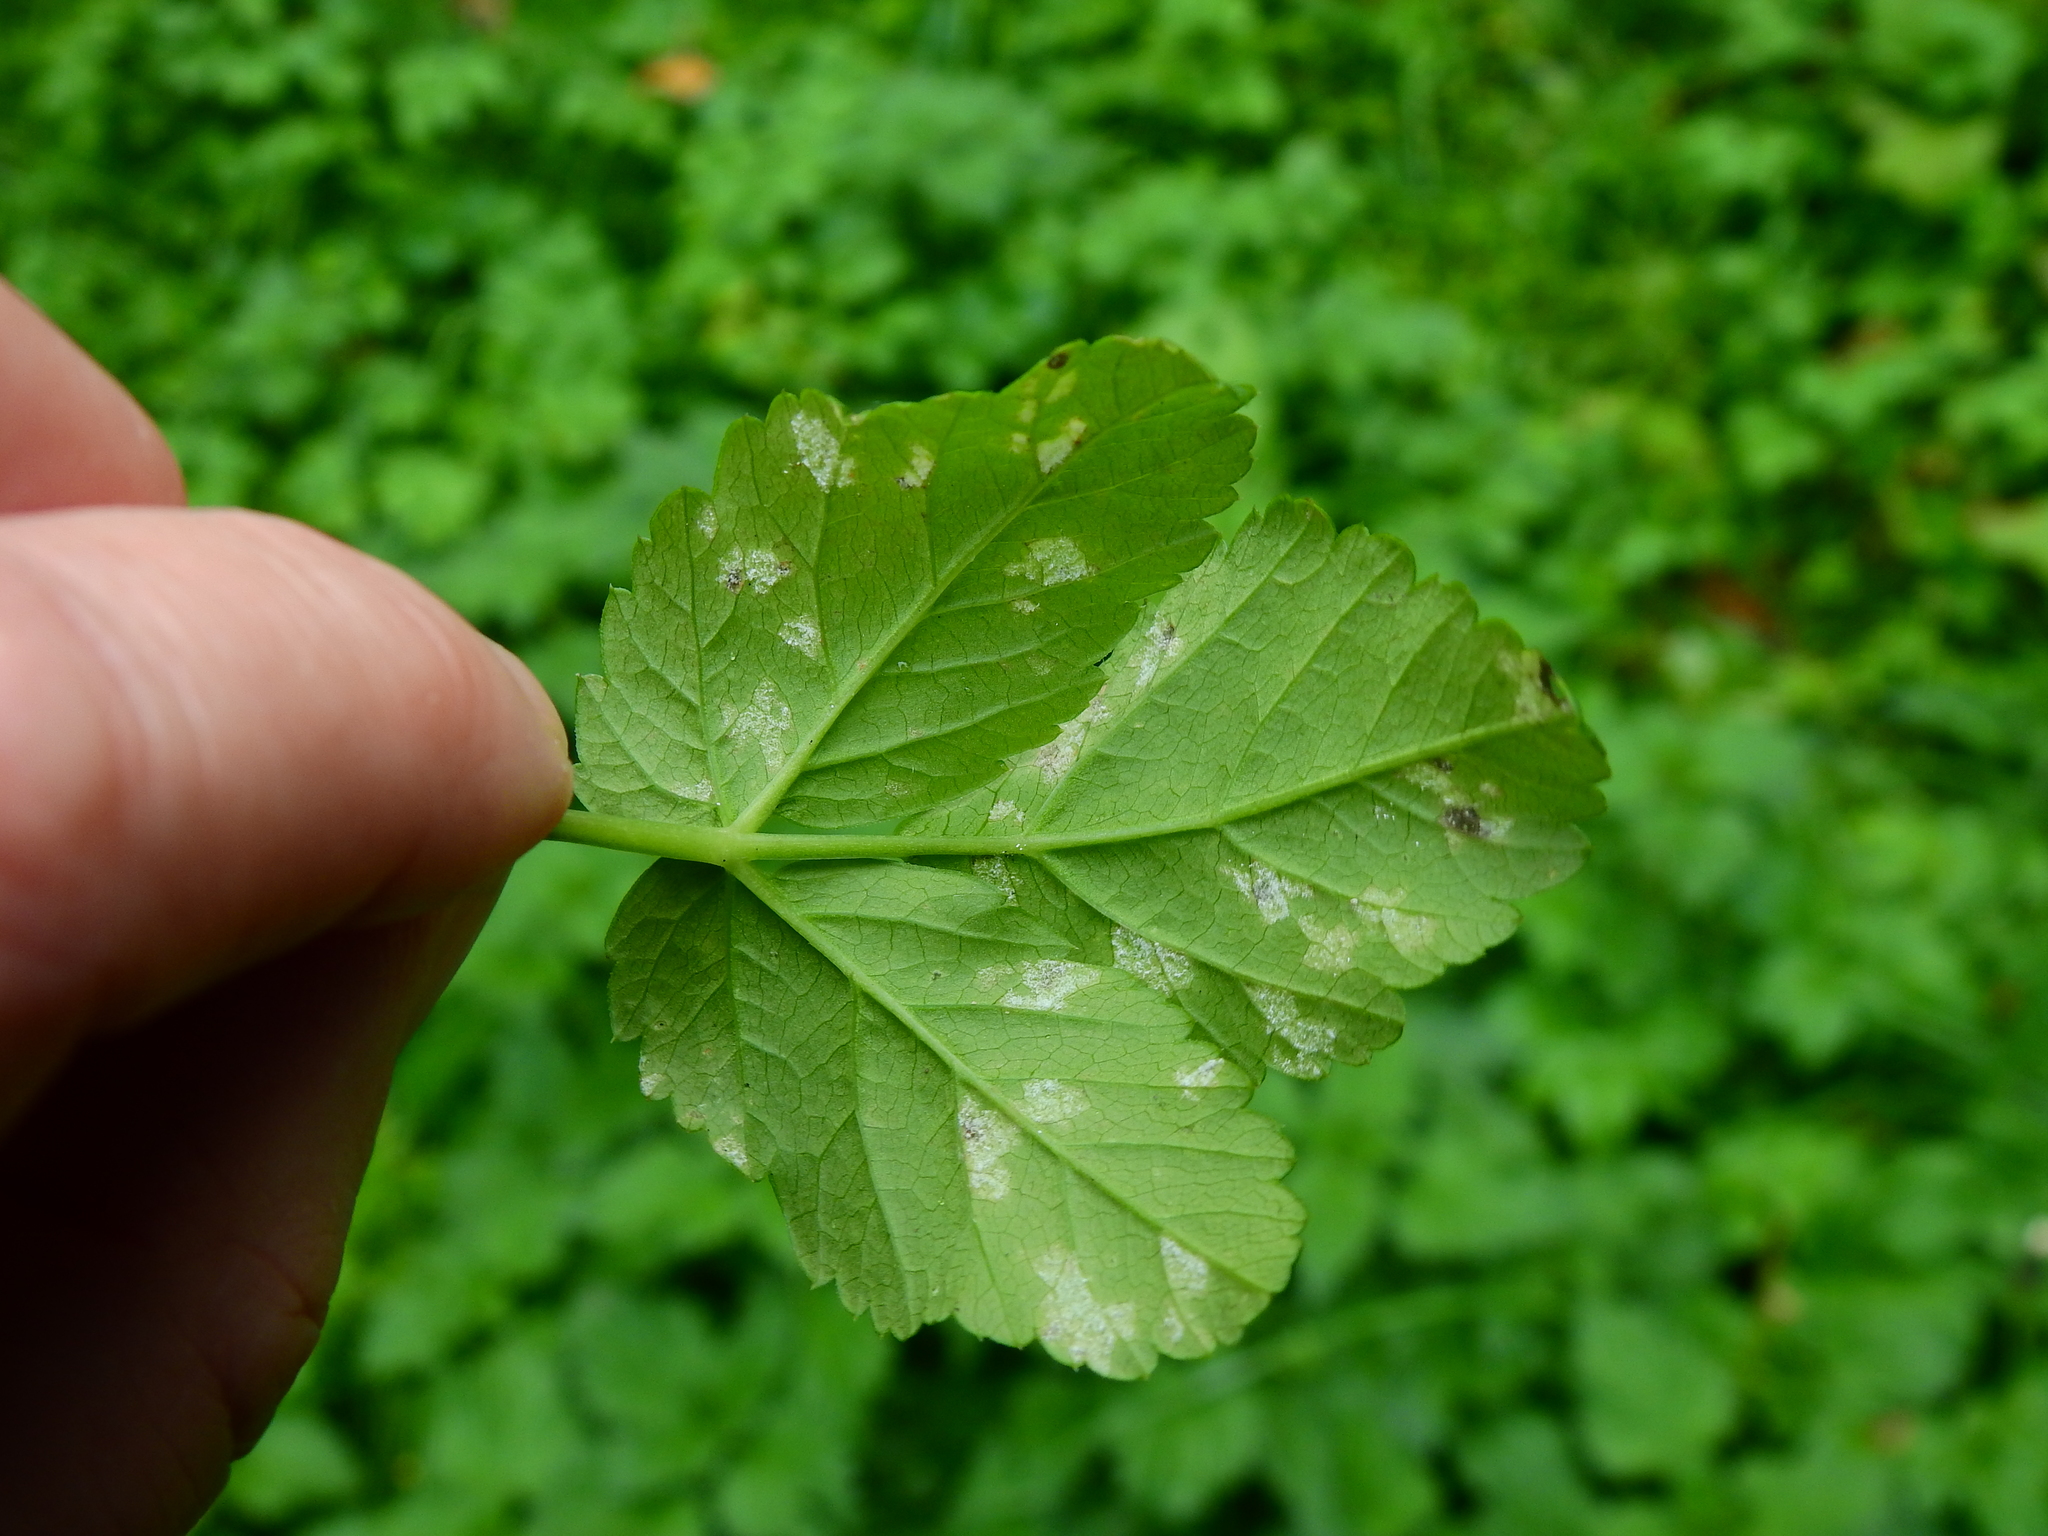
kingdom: Fungi
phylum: Ascomycota
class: Taphrinomycetes
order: Taphrinales
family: Taphrinaceae
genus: Protomyces
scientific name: Protomyces macrosporus
